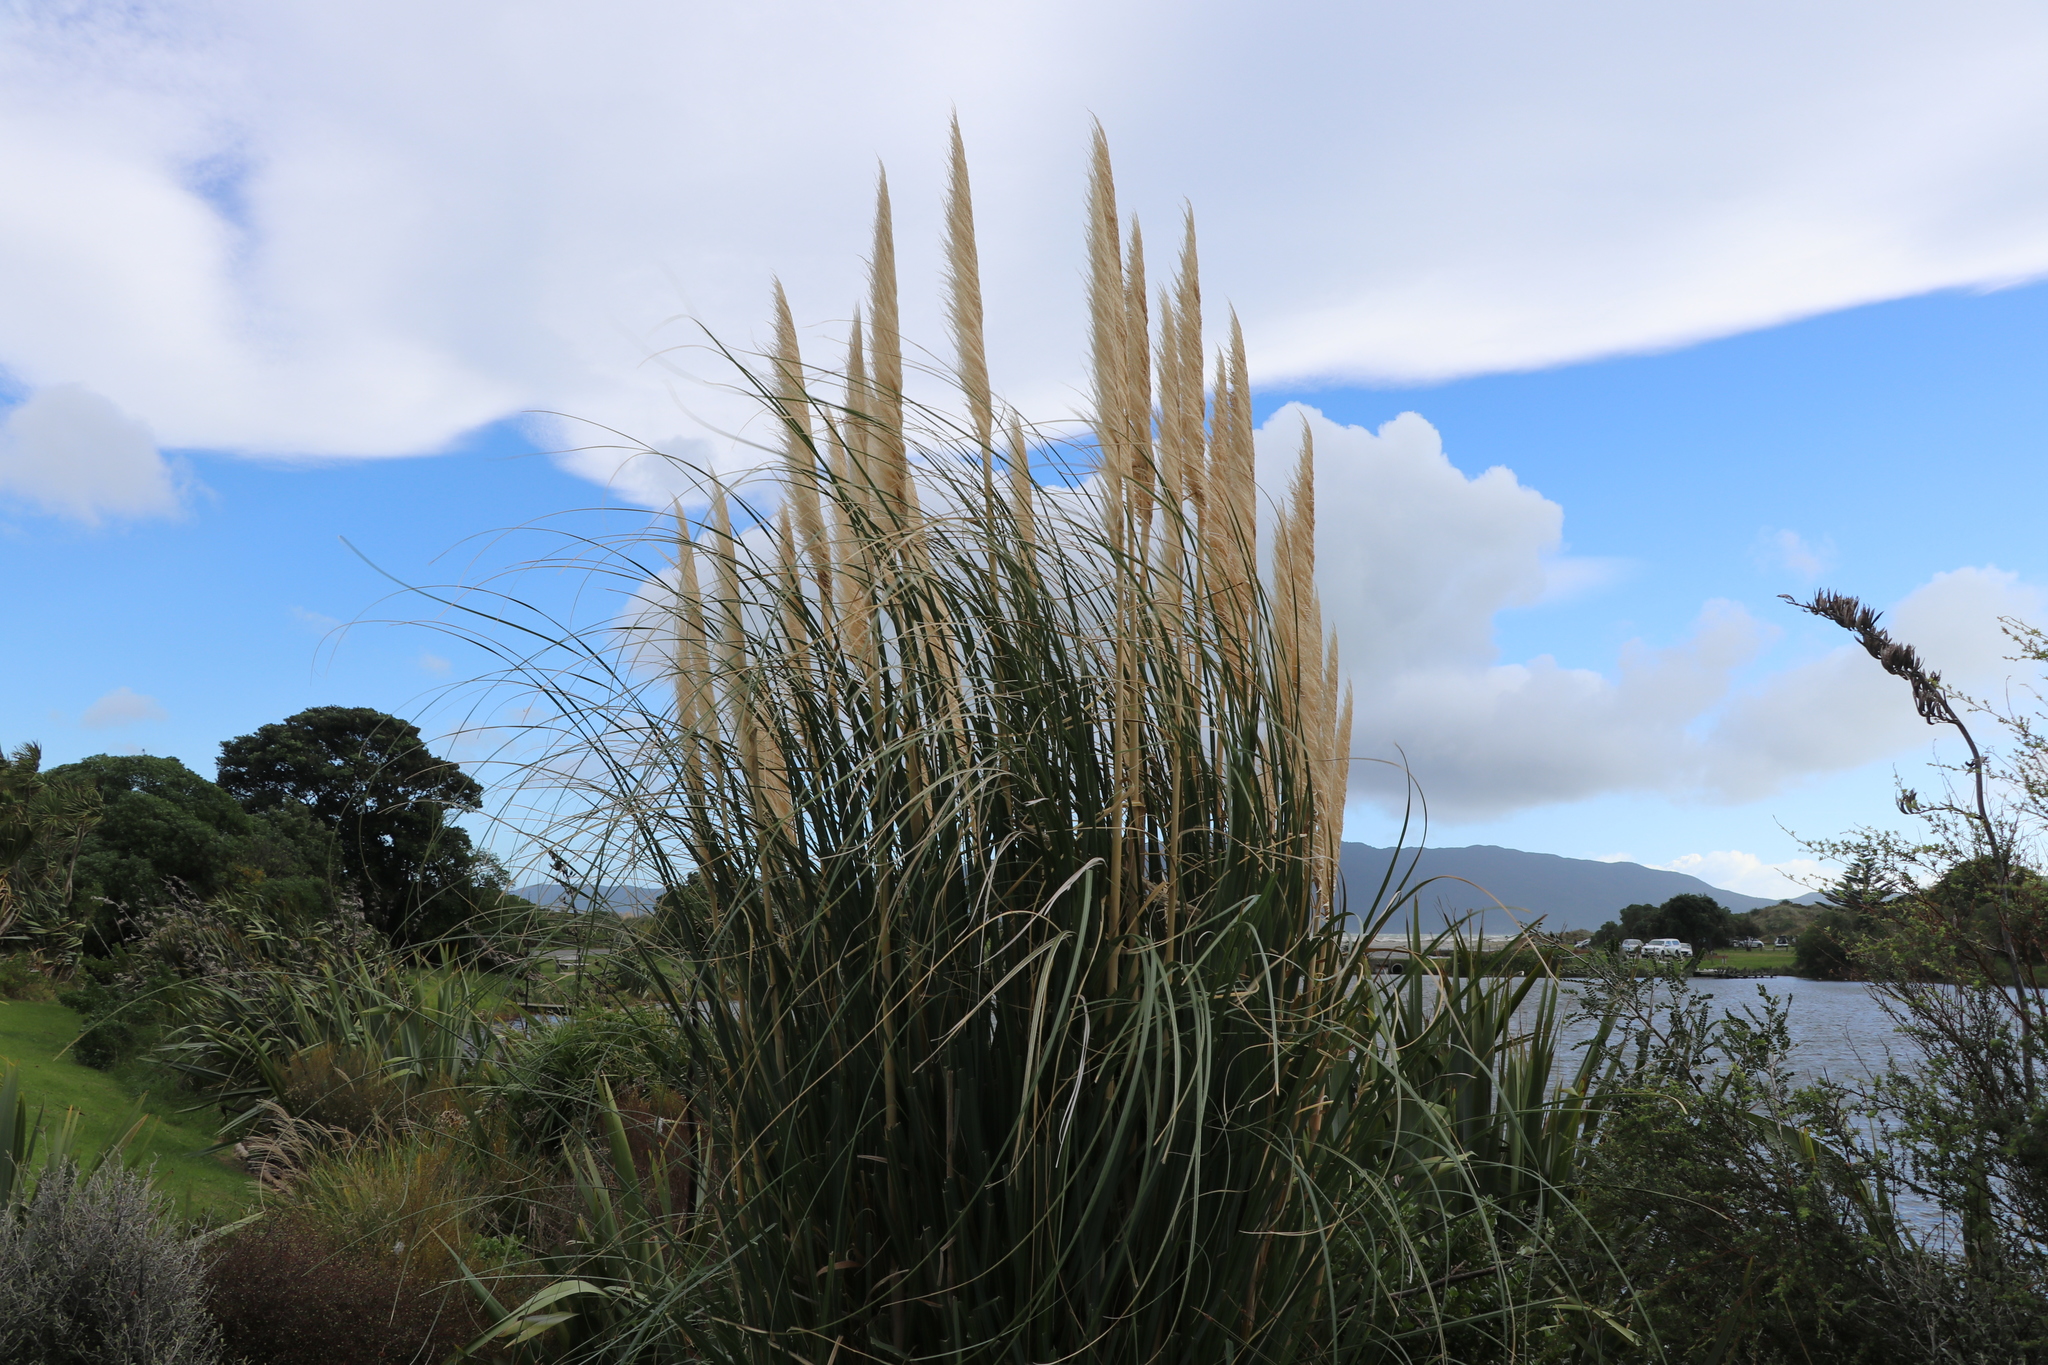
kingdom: Plantae
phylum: Tracheophyta
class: Liliopsida
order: Poales
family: Poaceae
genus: Cortaderia
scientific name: Cortaderia selloana
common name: Uruguayan pampas grass
